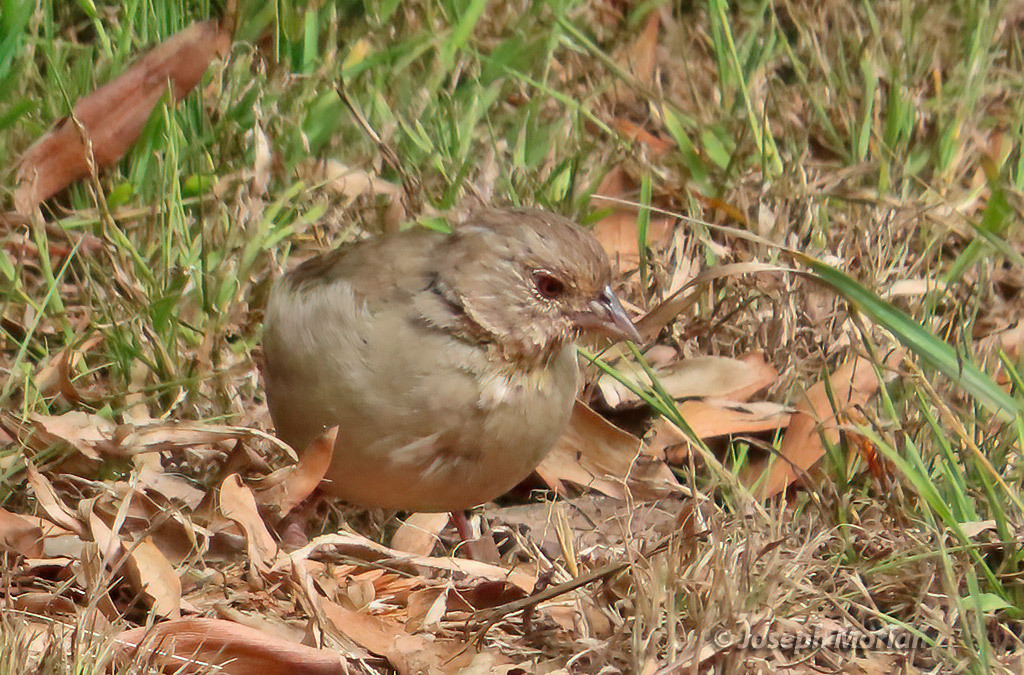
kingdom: Animalia
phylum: Chordata
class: Aves
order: Passeriformes
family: Passerellidae
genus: Melozone
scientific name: Melozone crissalis
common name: California towhee
